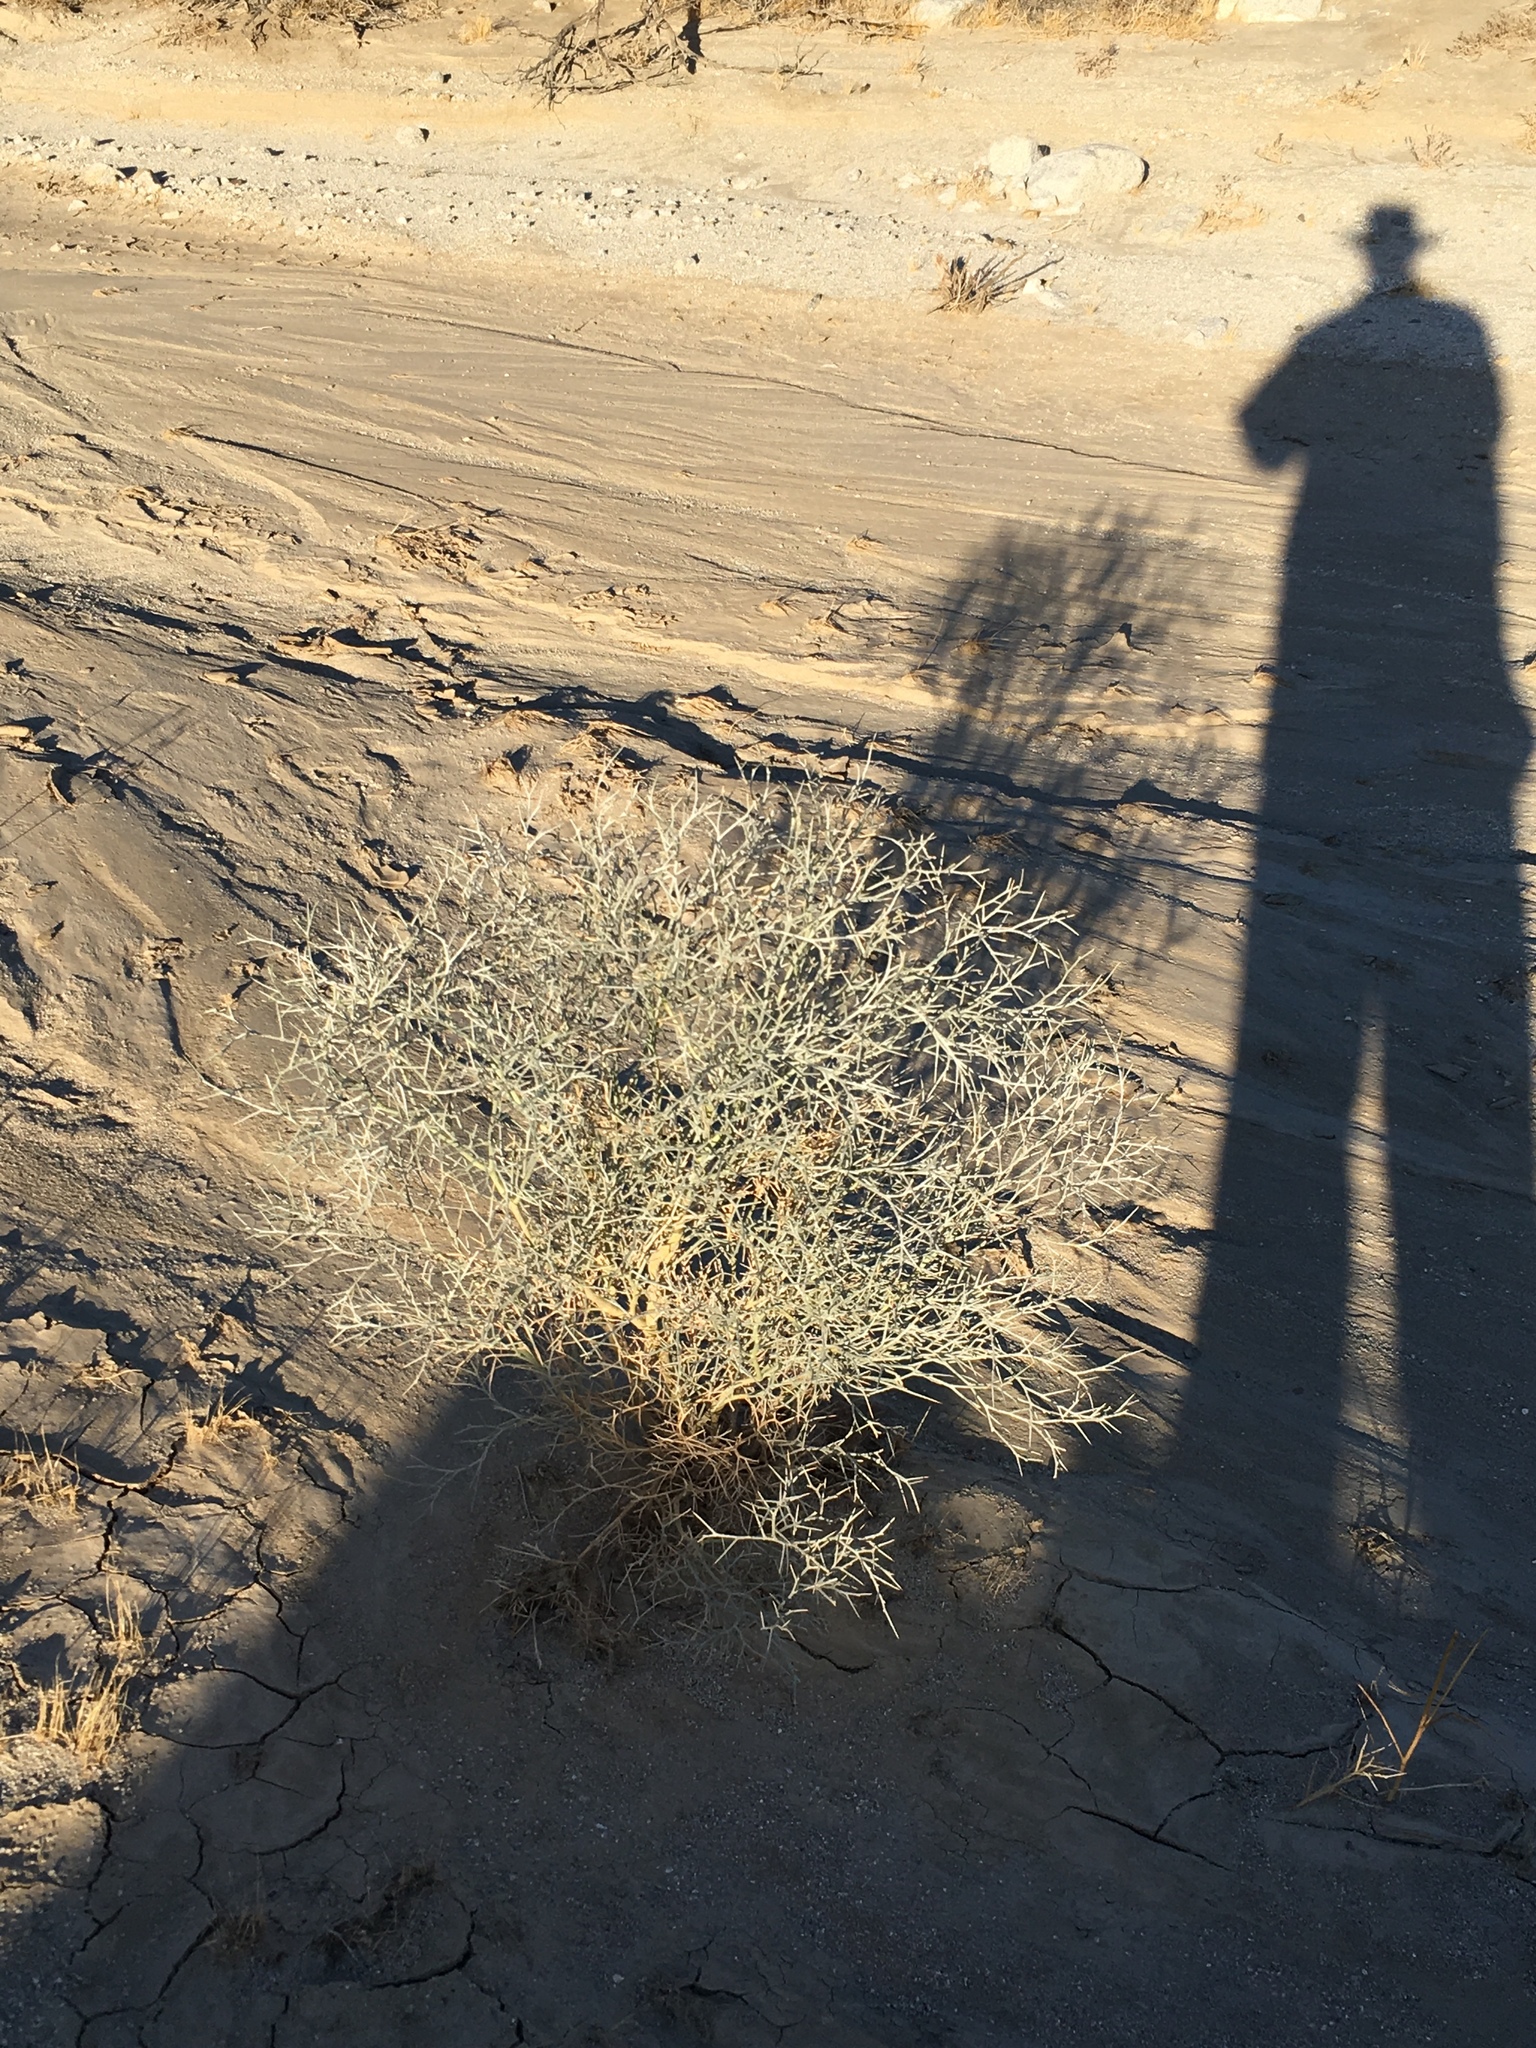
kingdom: Plantae
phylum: Tracheophyta
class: Magnoliopsida
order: Fabales
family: Fabaceae
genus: Psorothamnus
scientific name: Psorothamnus spinosus
